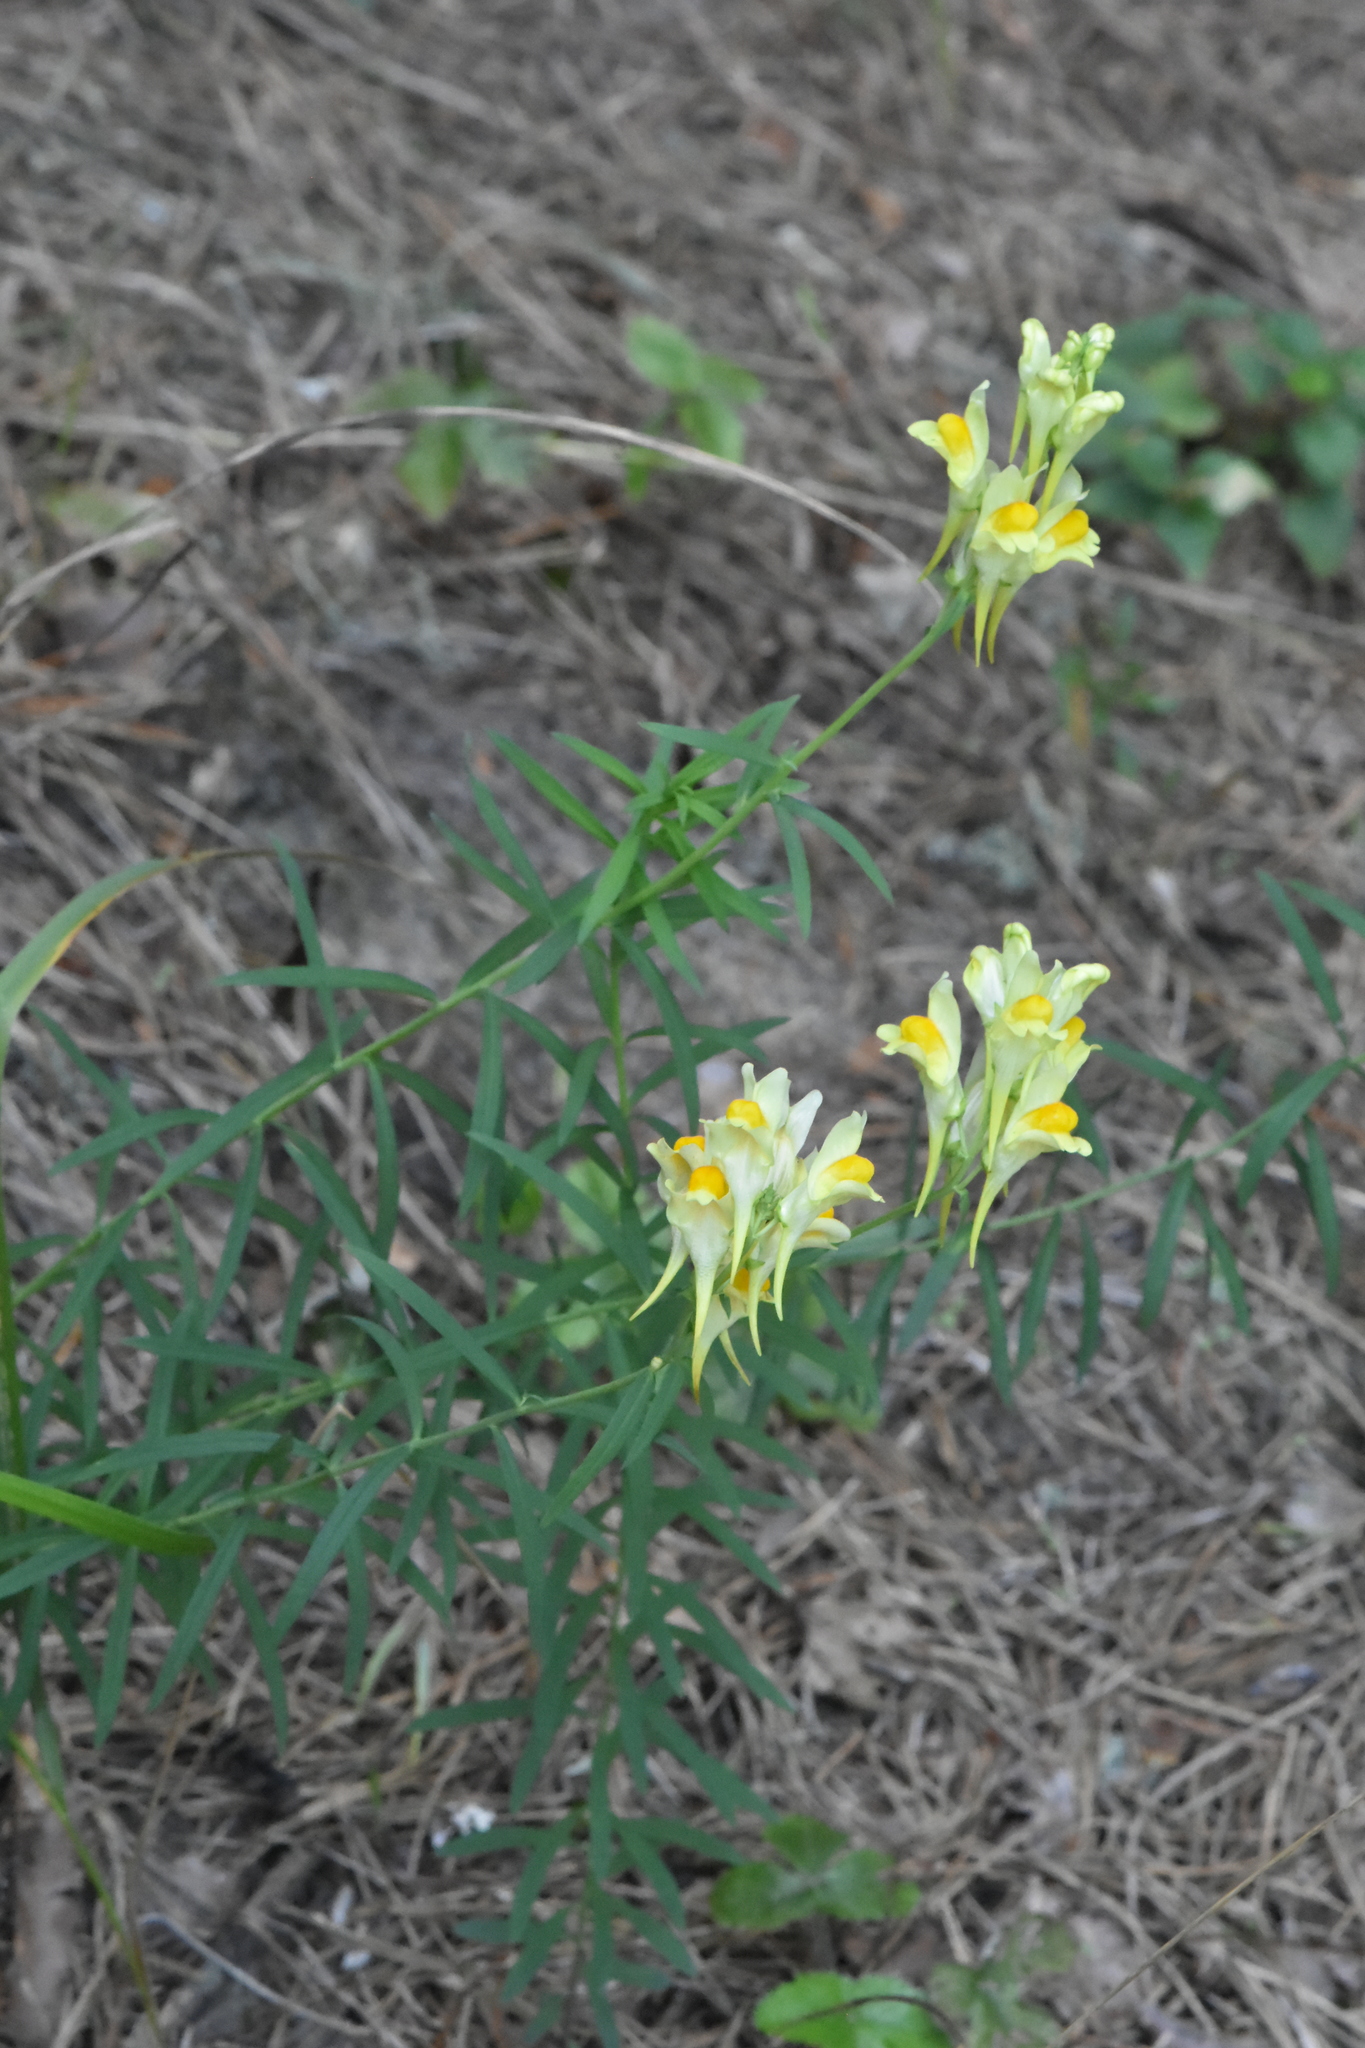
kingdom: Plantae
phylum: Tracheophyta
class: Magnoliopsida
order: Lamiales
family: Plantaginaceae
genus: Linaria
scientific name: Linaria vulgaris
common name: Butter and eggs
